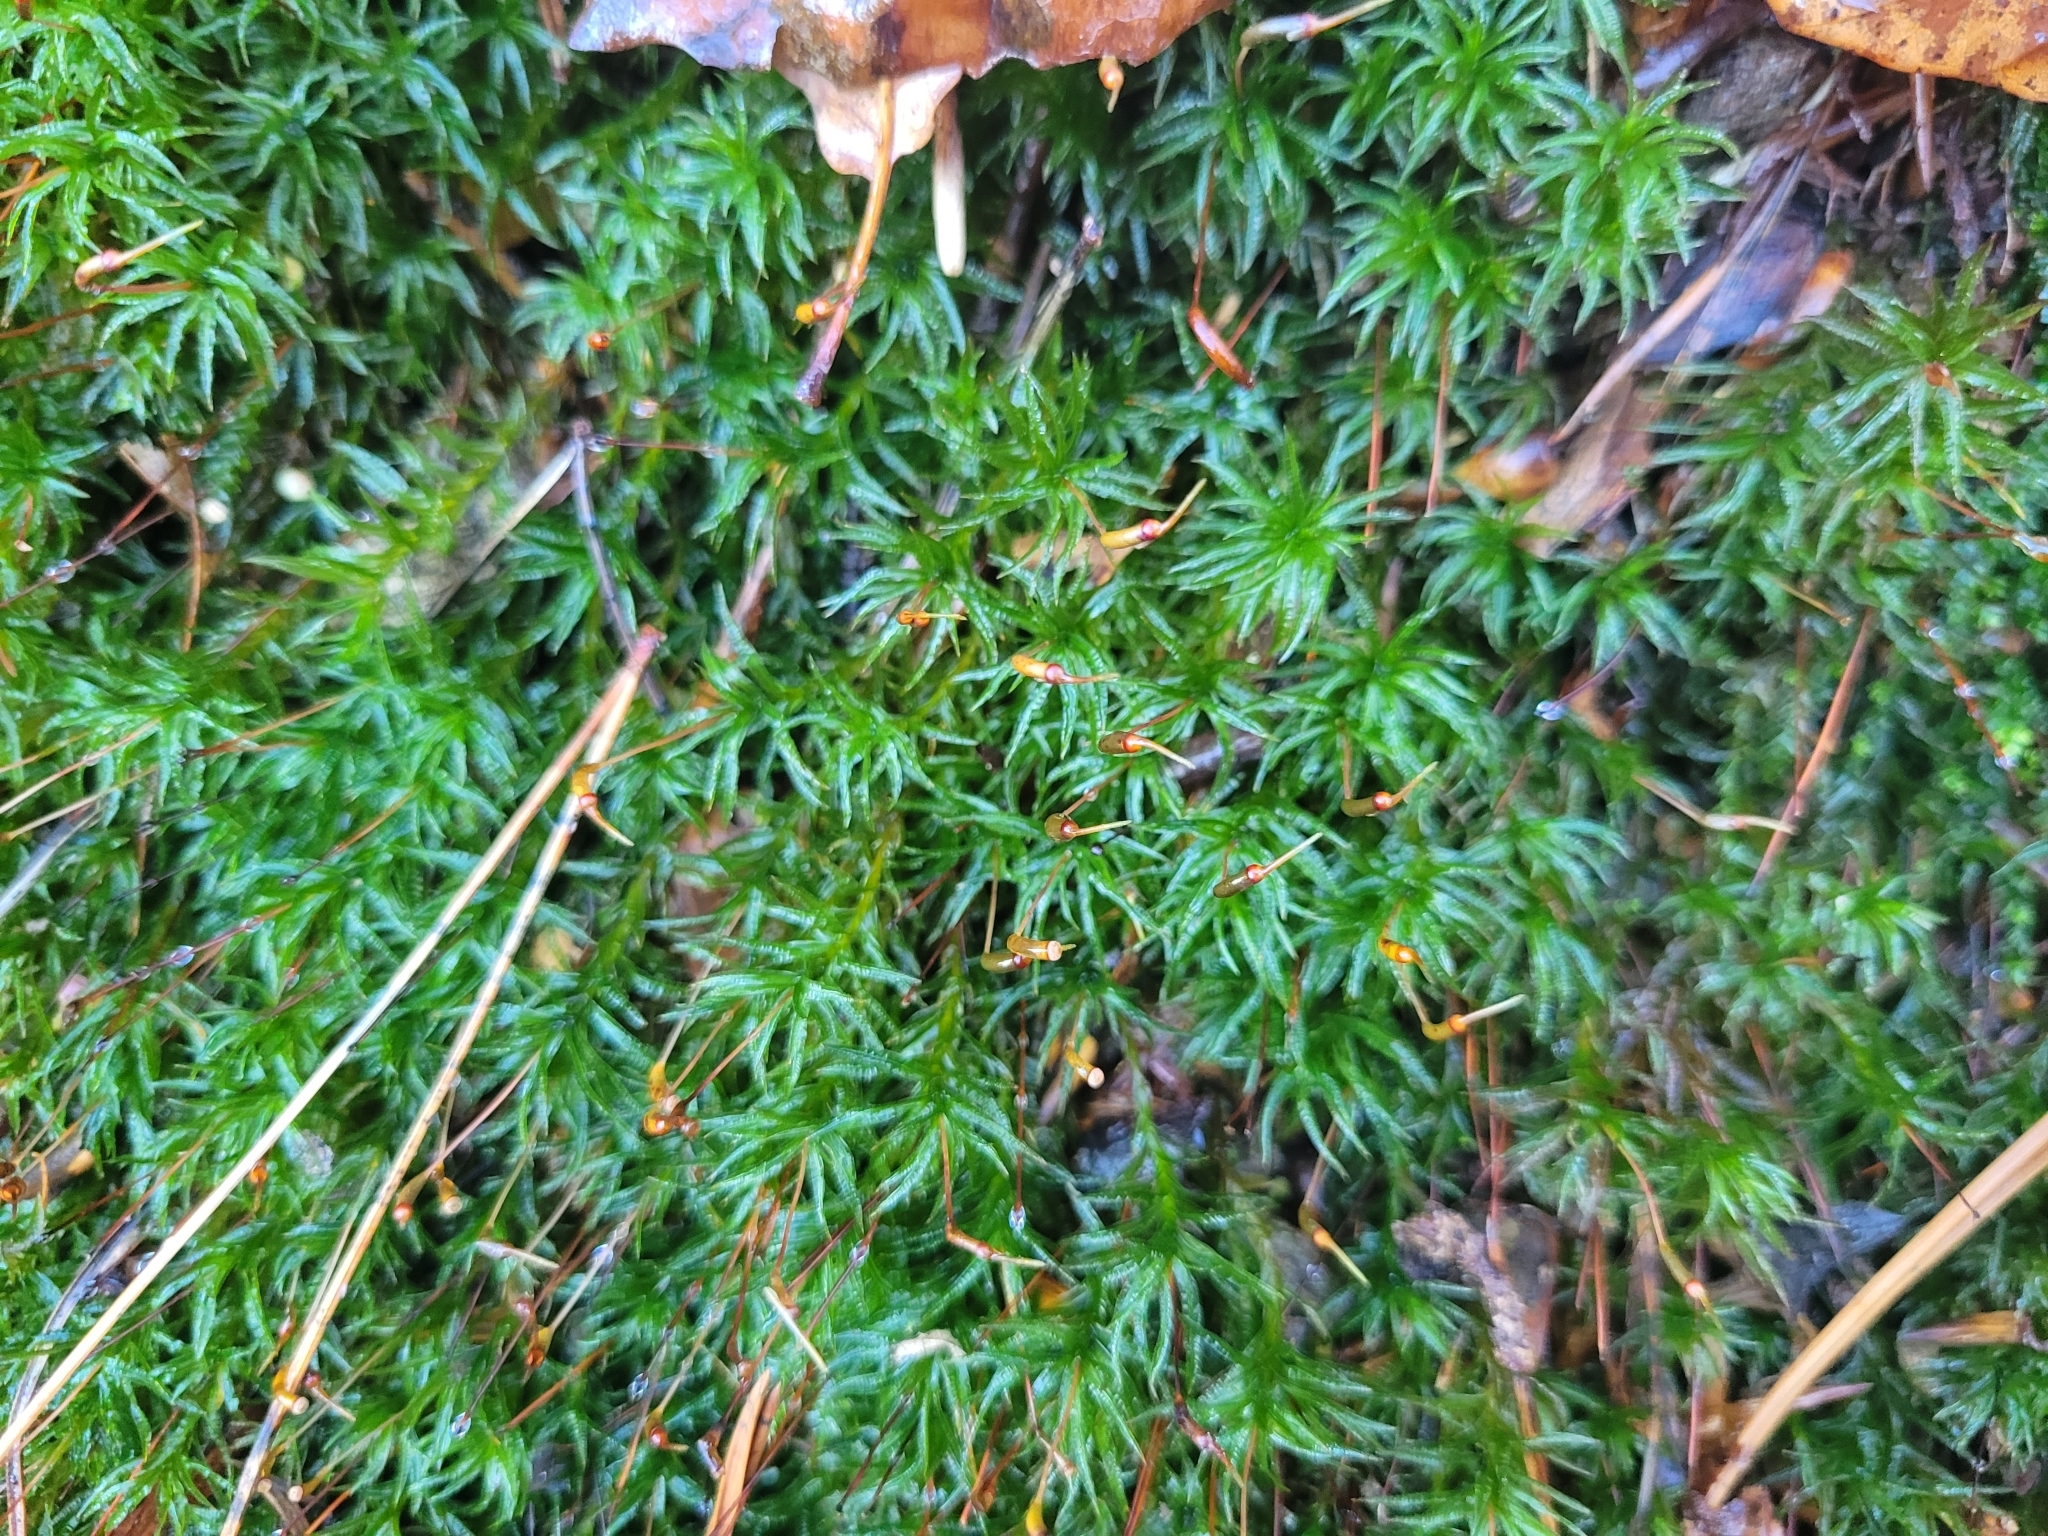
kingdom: Plantae
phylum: Bryophyta
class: Polytrichopsida
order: Polytrichales
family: Polytrichaceae
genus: Atrichum
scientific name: Atrichum undulatum
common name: Common smoothcap
